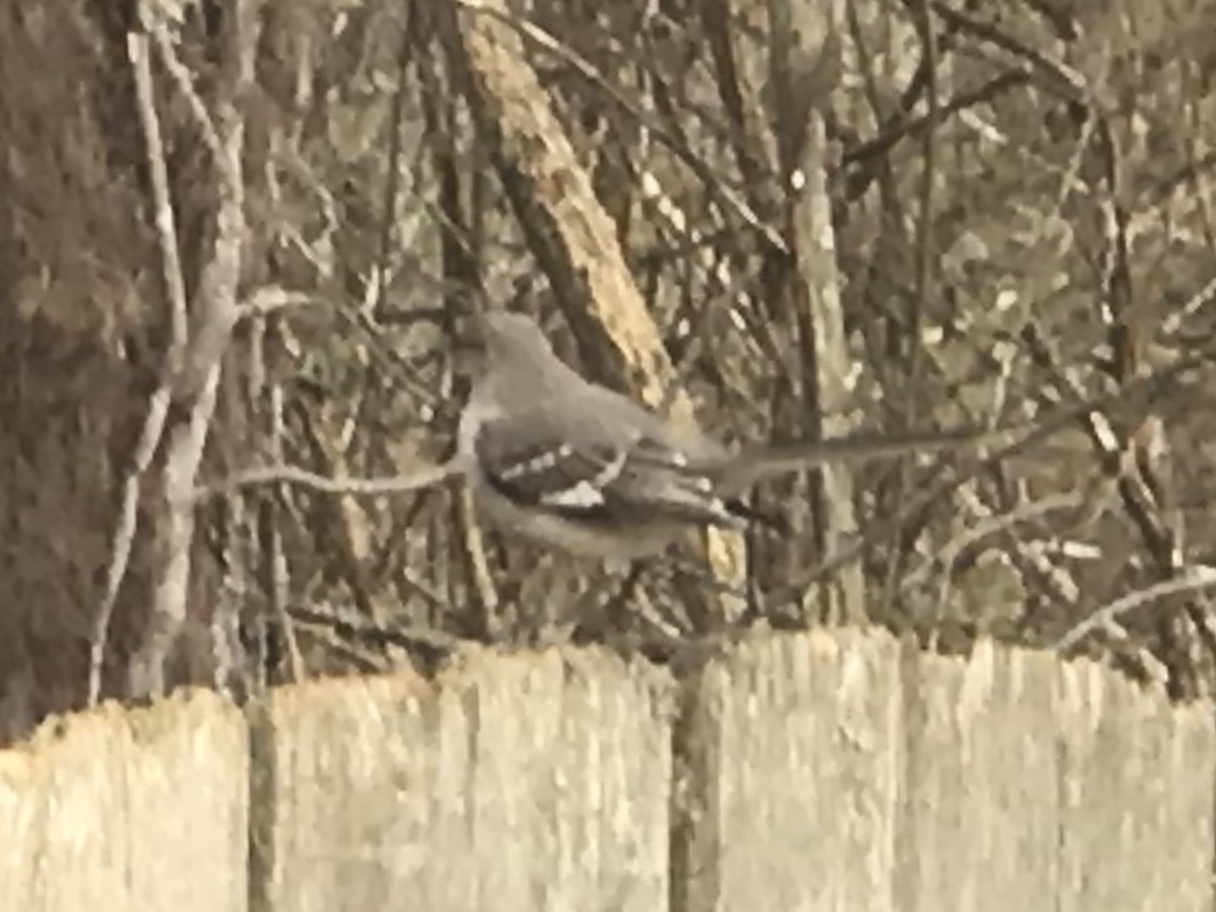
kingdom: Animalia
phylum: Chordata
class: Aves
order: Passeriformes
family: Mimidae
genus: Mimus
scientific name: Mimus polyglottos
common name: Northern mockingbird
